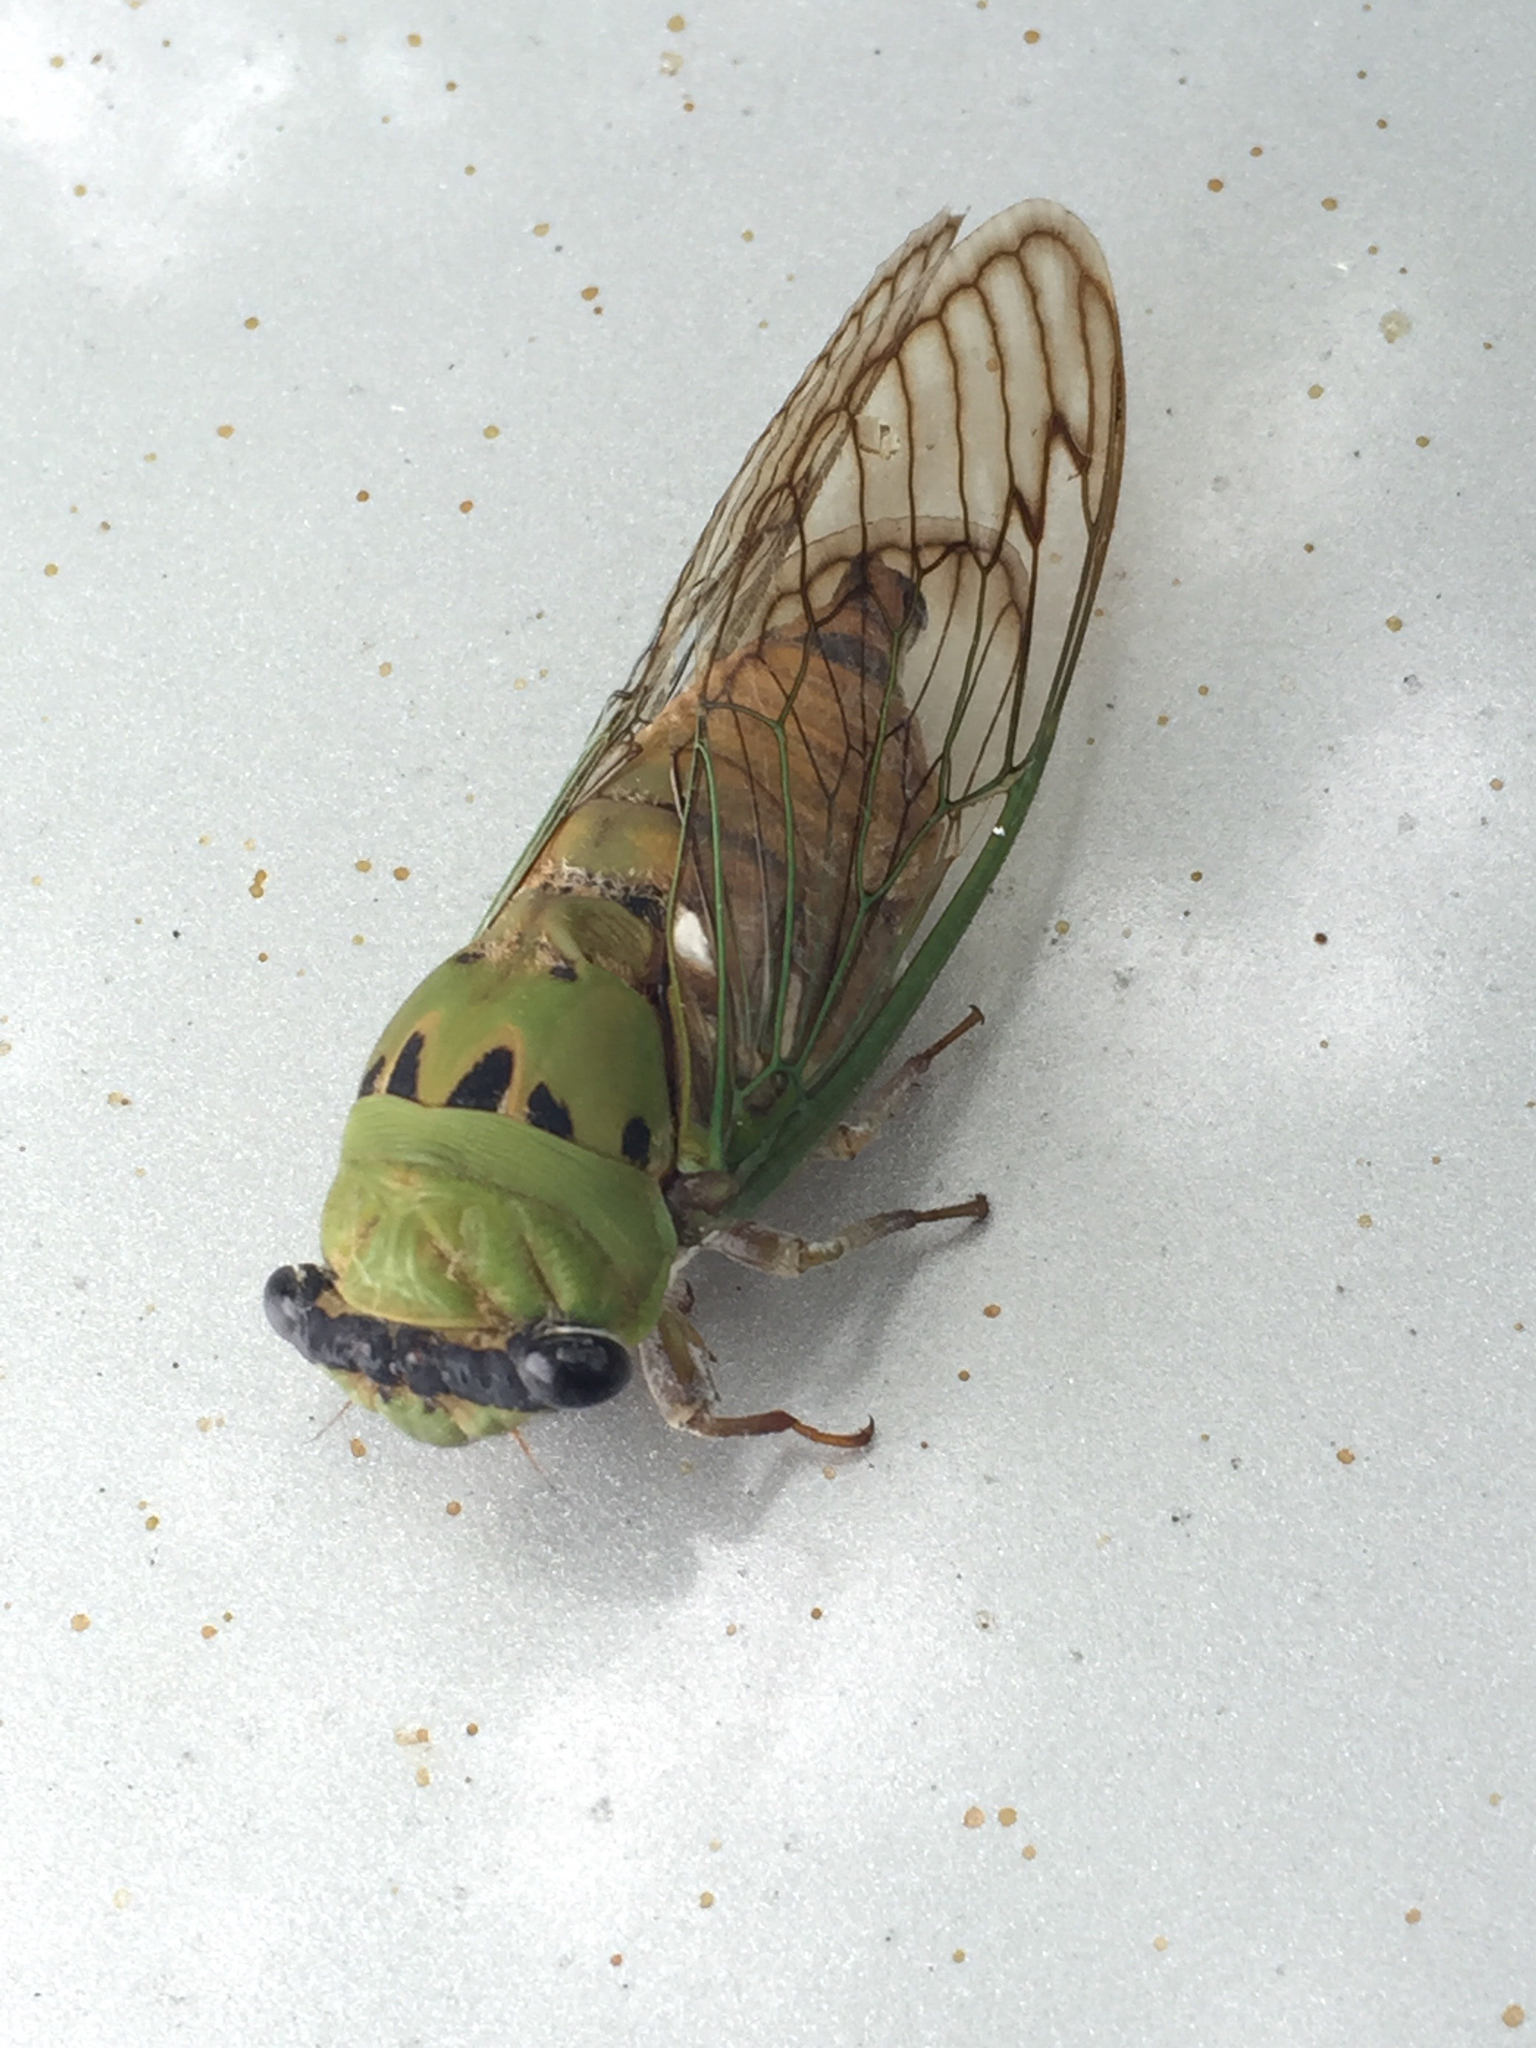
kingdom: Animalia
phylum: Arthropoda
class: Insecta
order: Hemiptera
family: Cicadidae
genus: Neotibicen
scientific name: Neotibicen superbus
